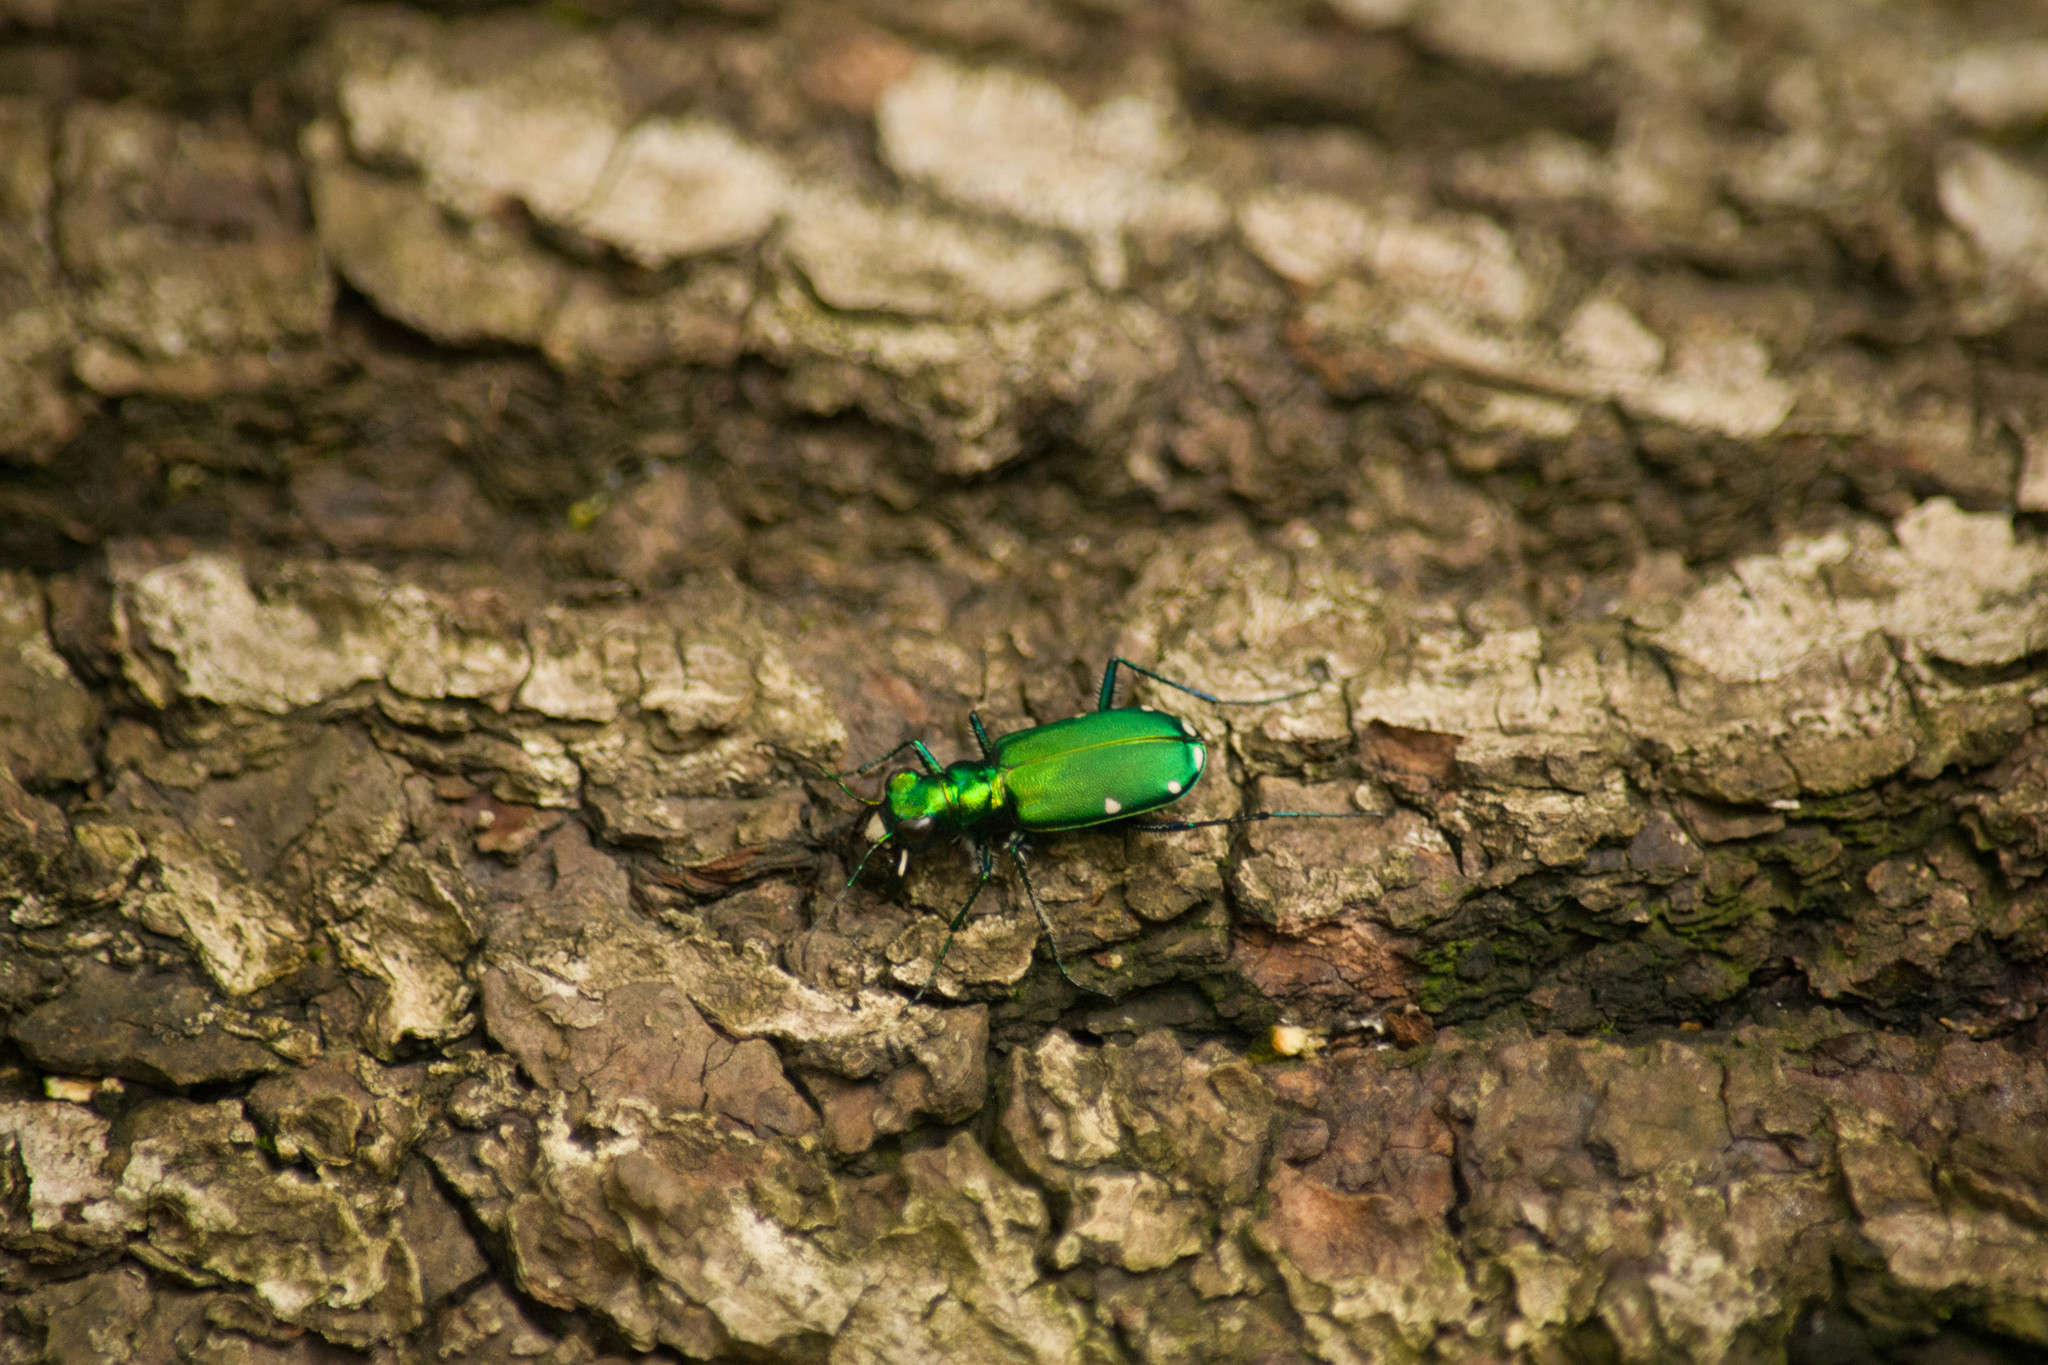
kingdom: Animalia
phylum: Arthropoda
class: Insecta
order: Coleoptera
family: Carabidae
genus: Cicindela
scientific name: Cicindela sexguttata
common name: Six-spotted tiger beetle
